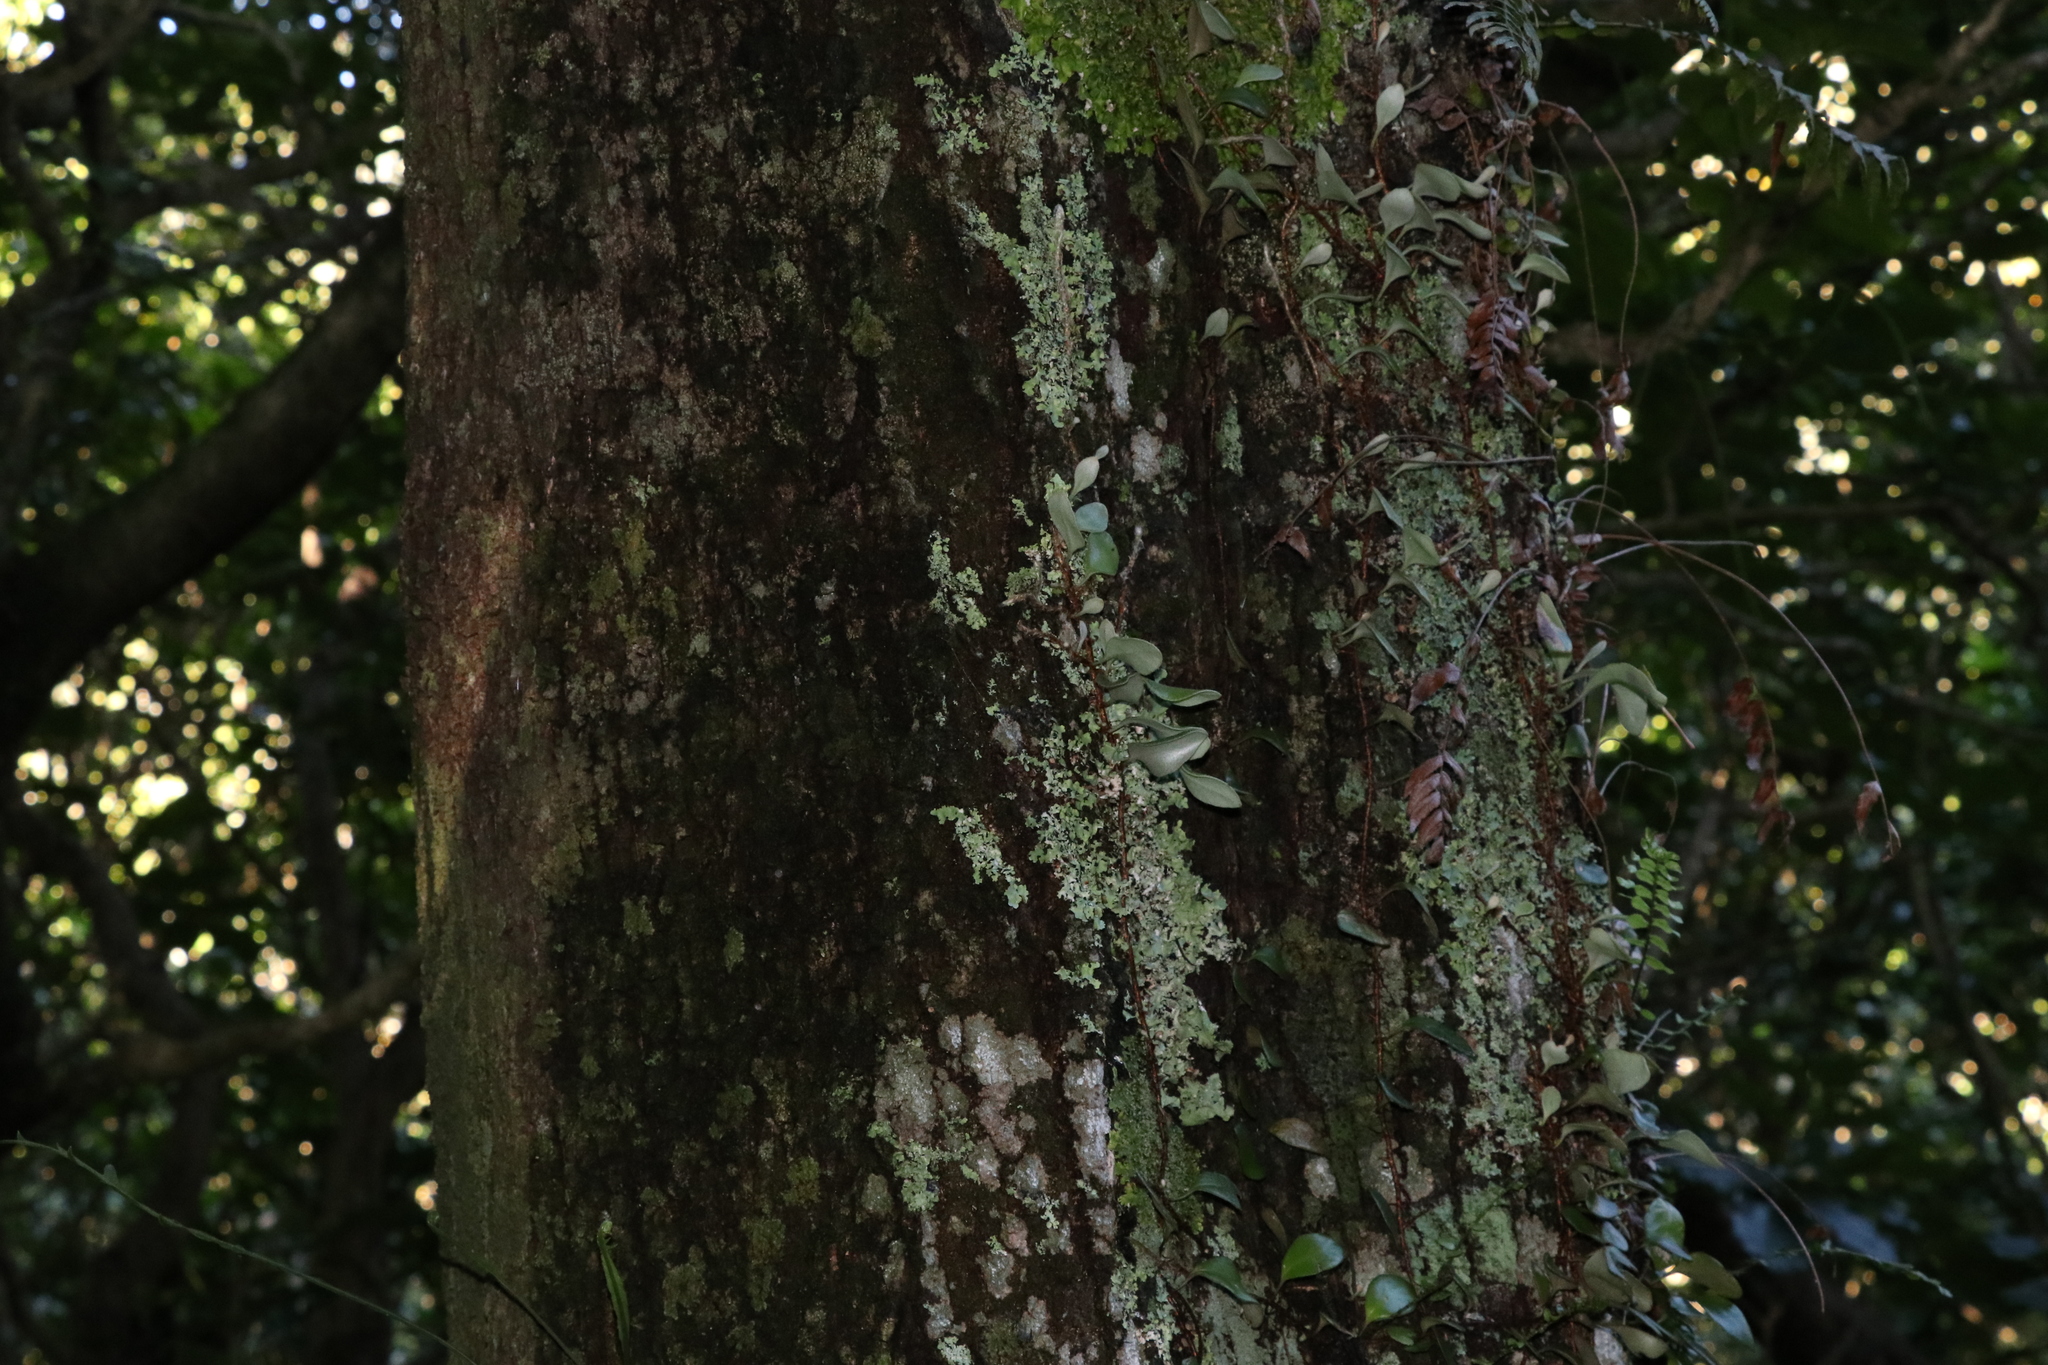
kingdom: Plantae
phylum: Tracheophyta
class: Magnoliopsida
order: Oxalidales
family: Elaeocarpaceae
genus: Elaeocarpus
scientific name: Elaeocarpus dentatus
